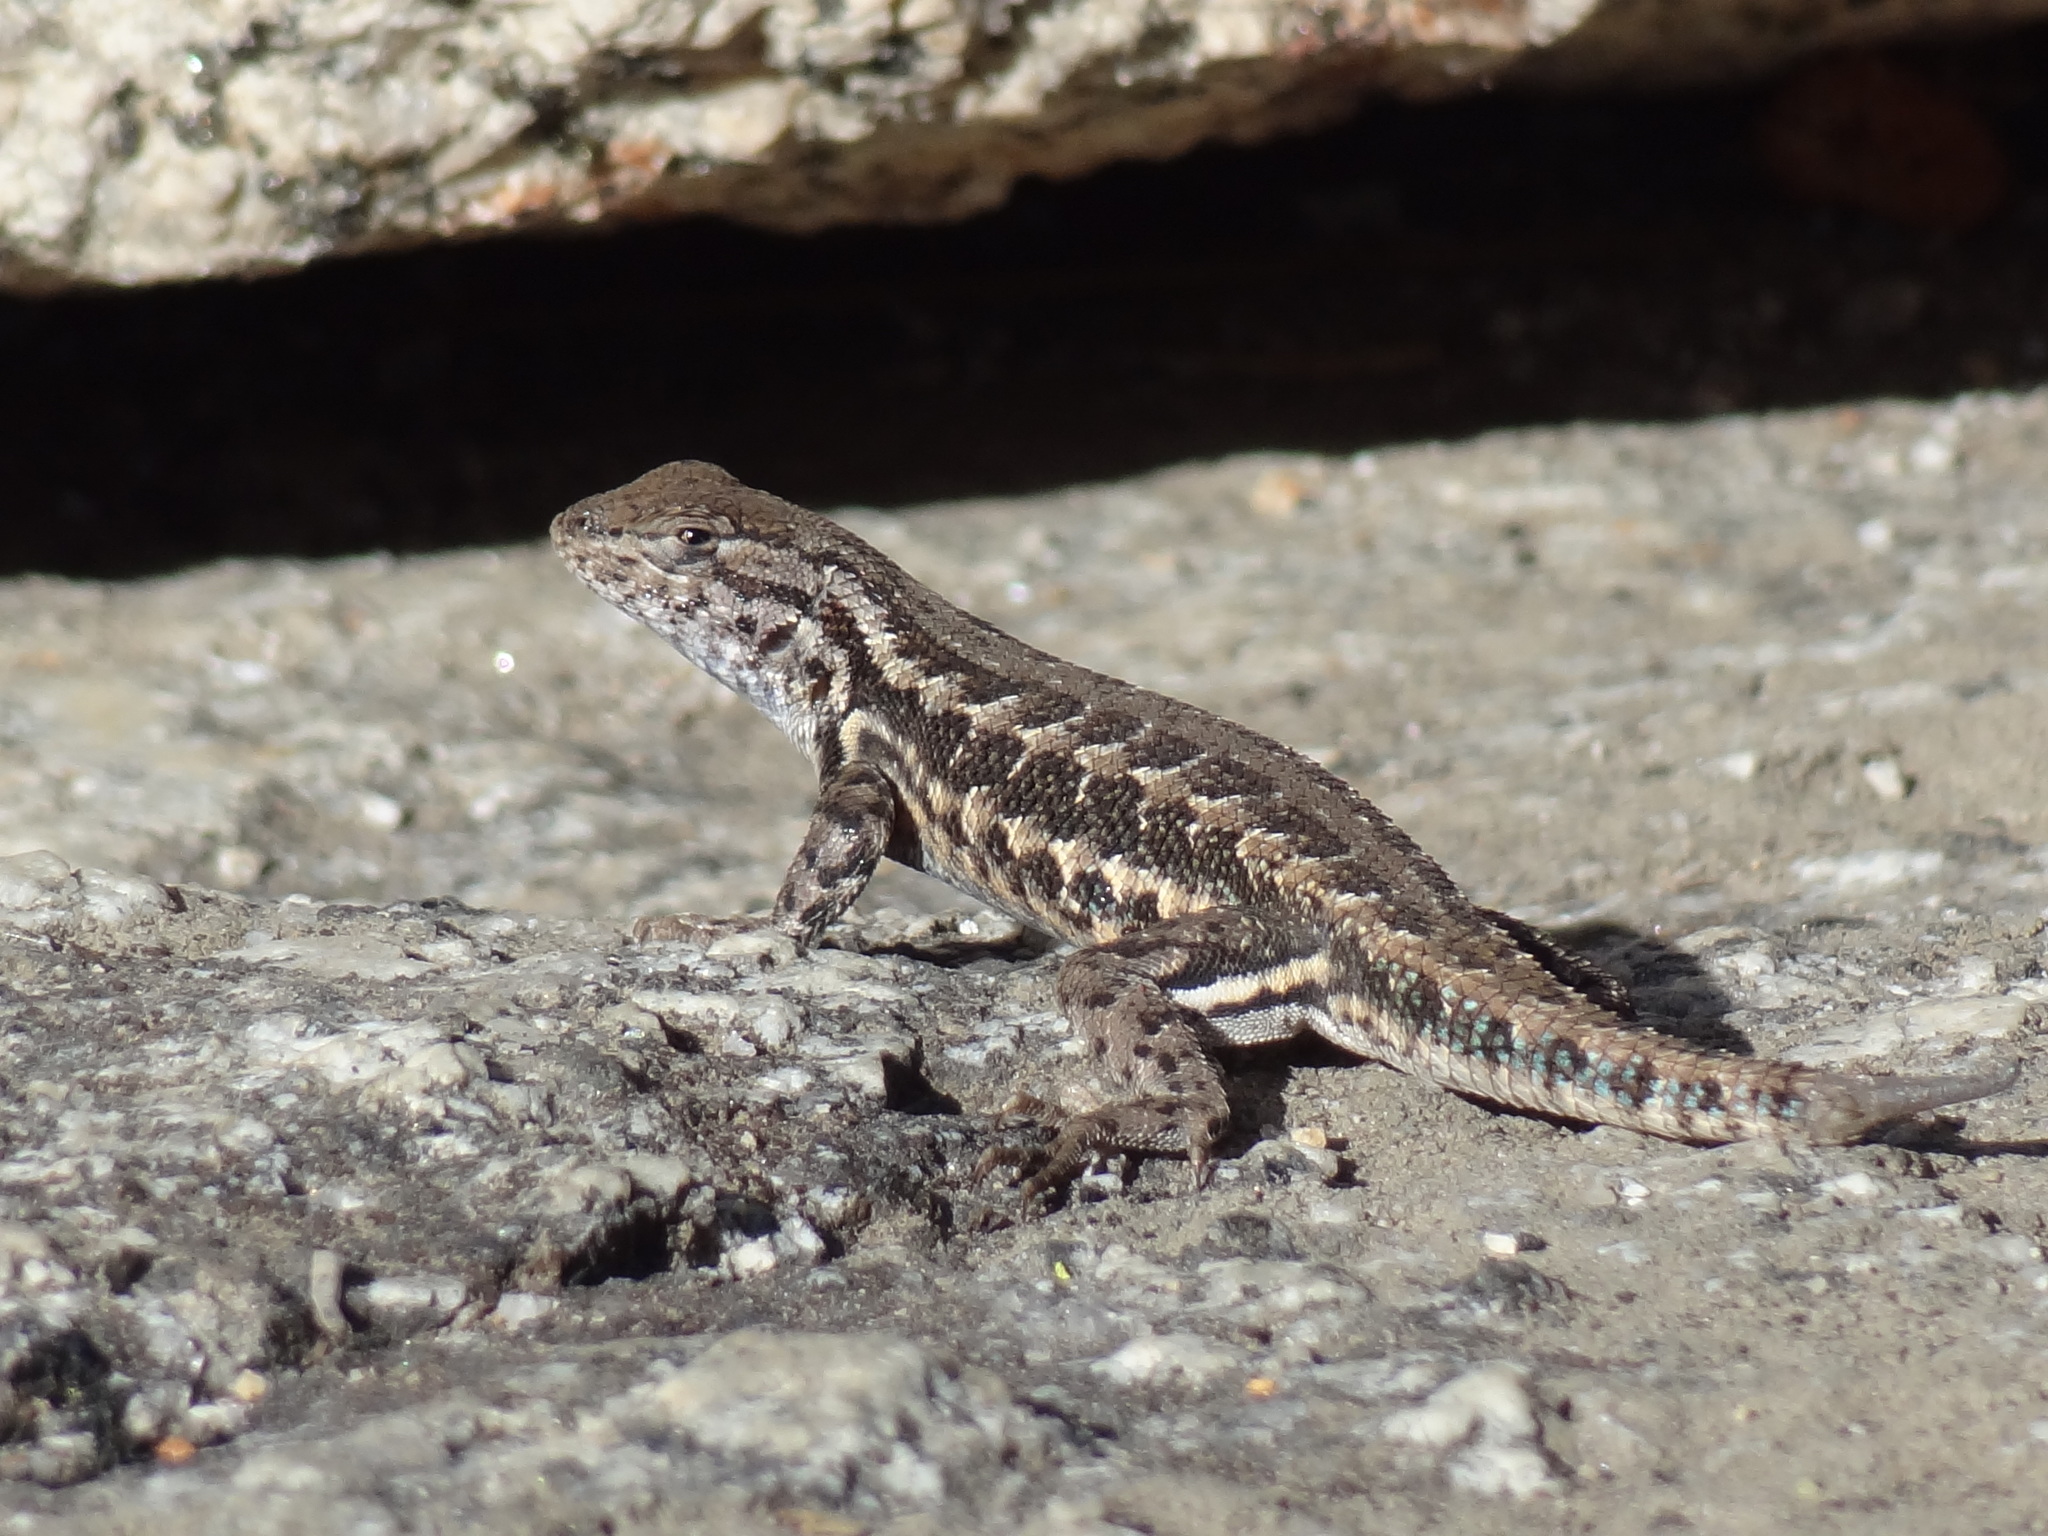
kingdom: Animalia
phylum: Chordata
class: Squamata
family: Phrynosomatidae
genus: Sceloporus
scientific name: Sceloporus graciosus
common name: Sagebrush lizard
